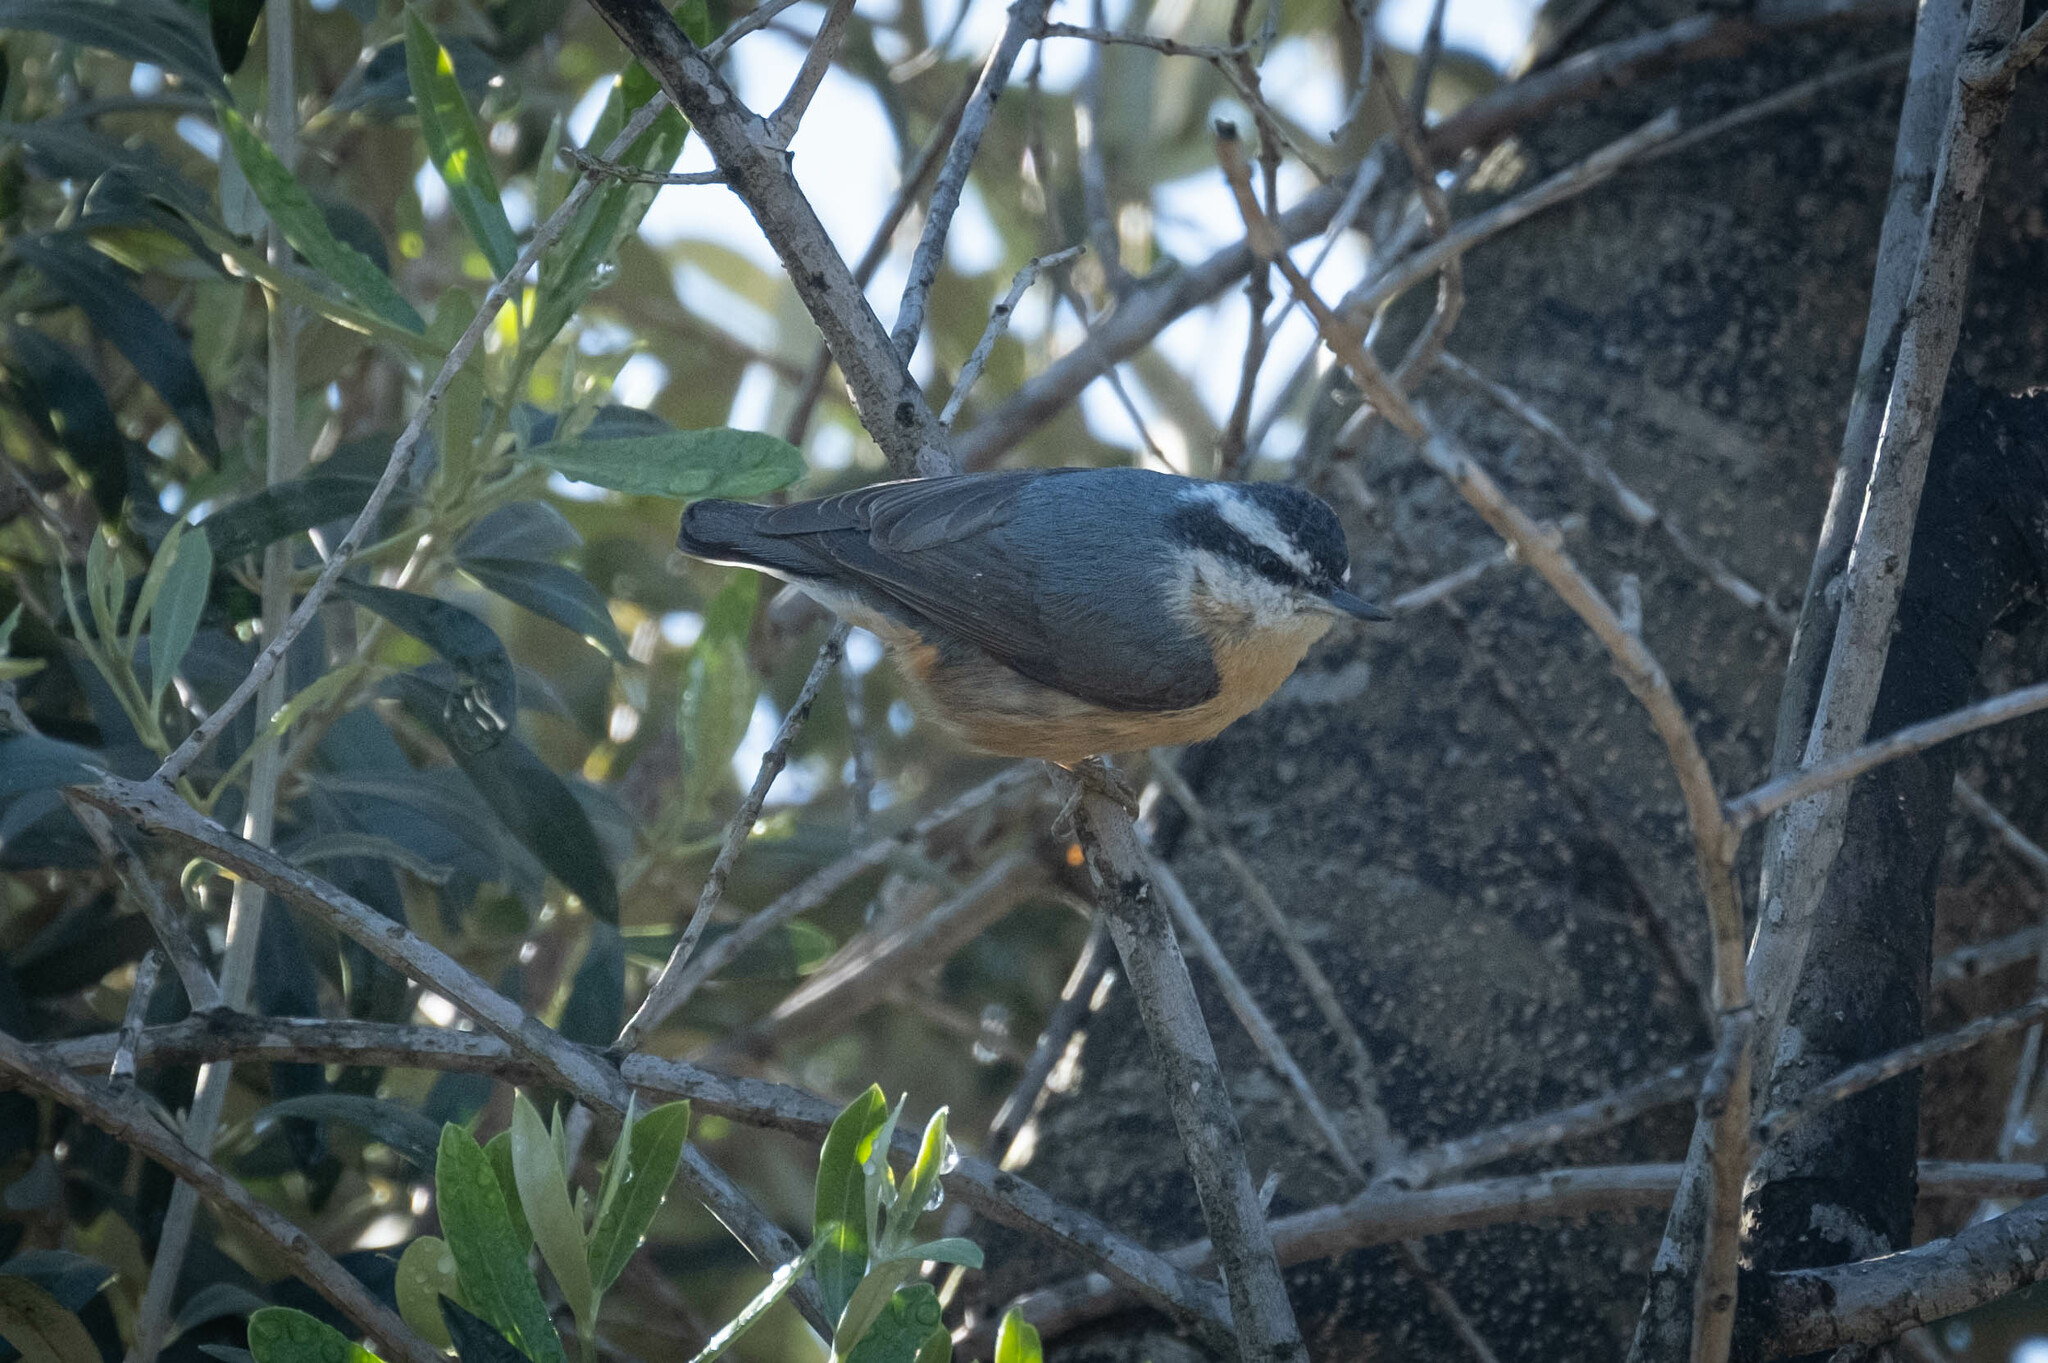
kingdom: Animalia
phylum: Chordata
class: Aves
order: Passeriformes
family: Sittidae
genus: Sitta
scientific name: Sitta canadensis
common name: Red-breasted nuthatch
